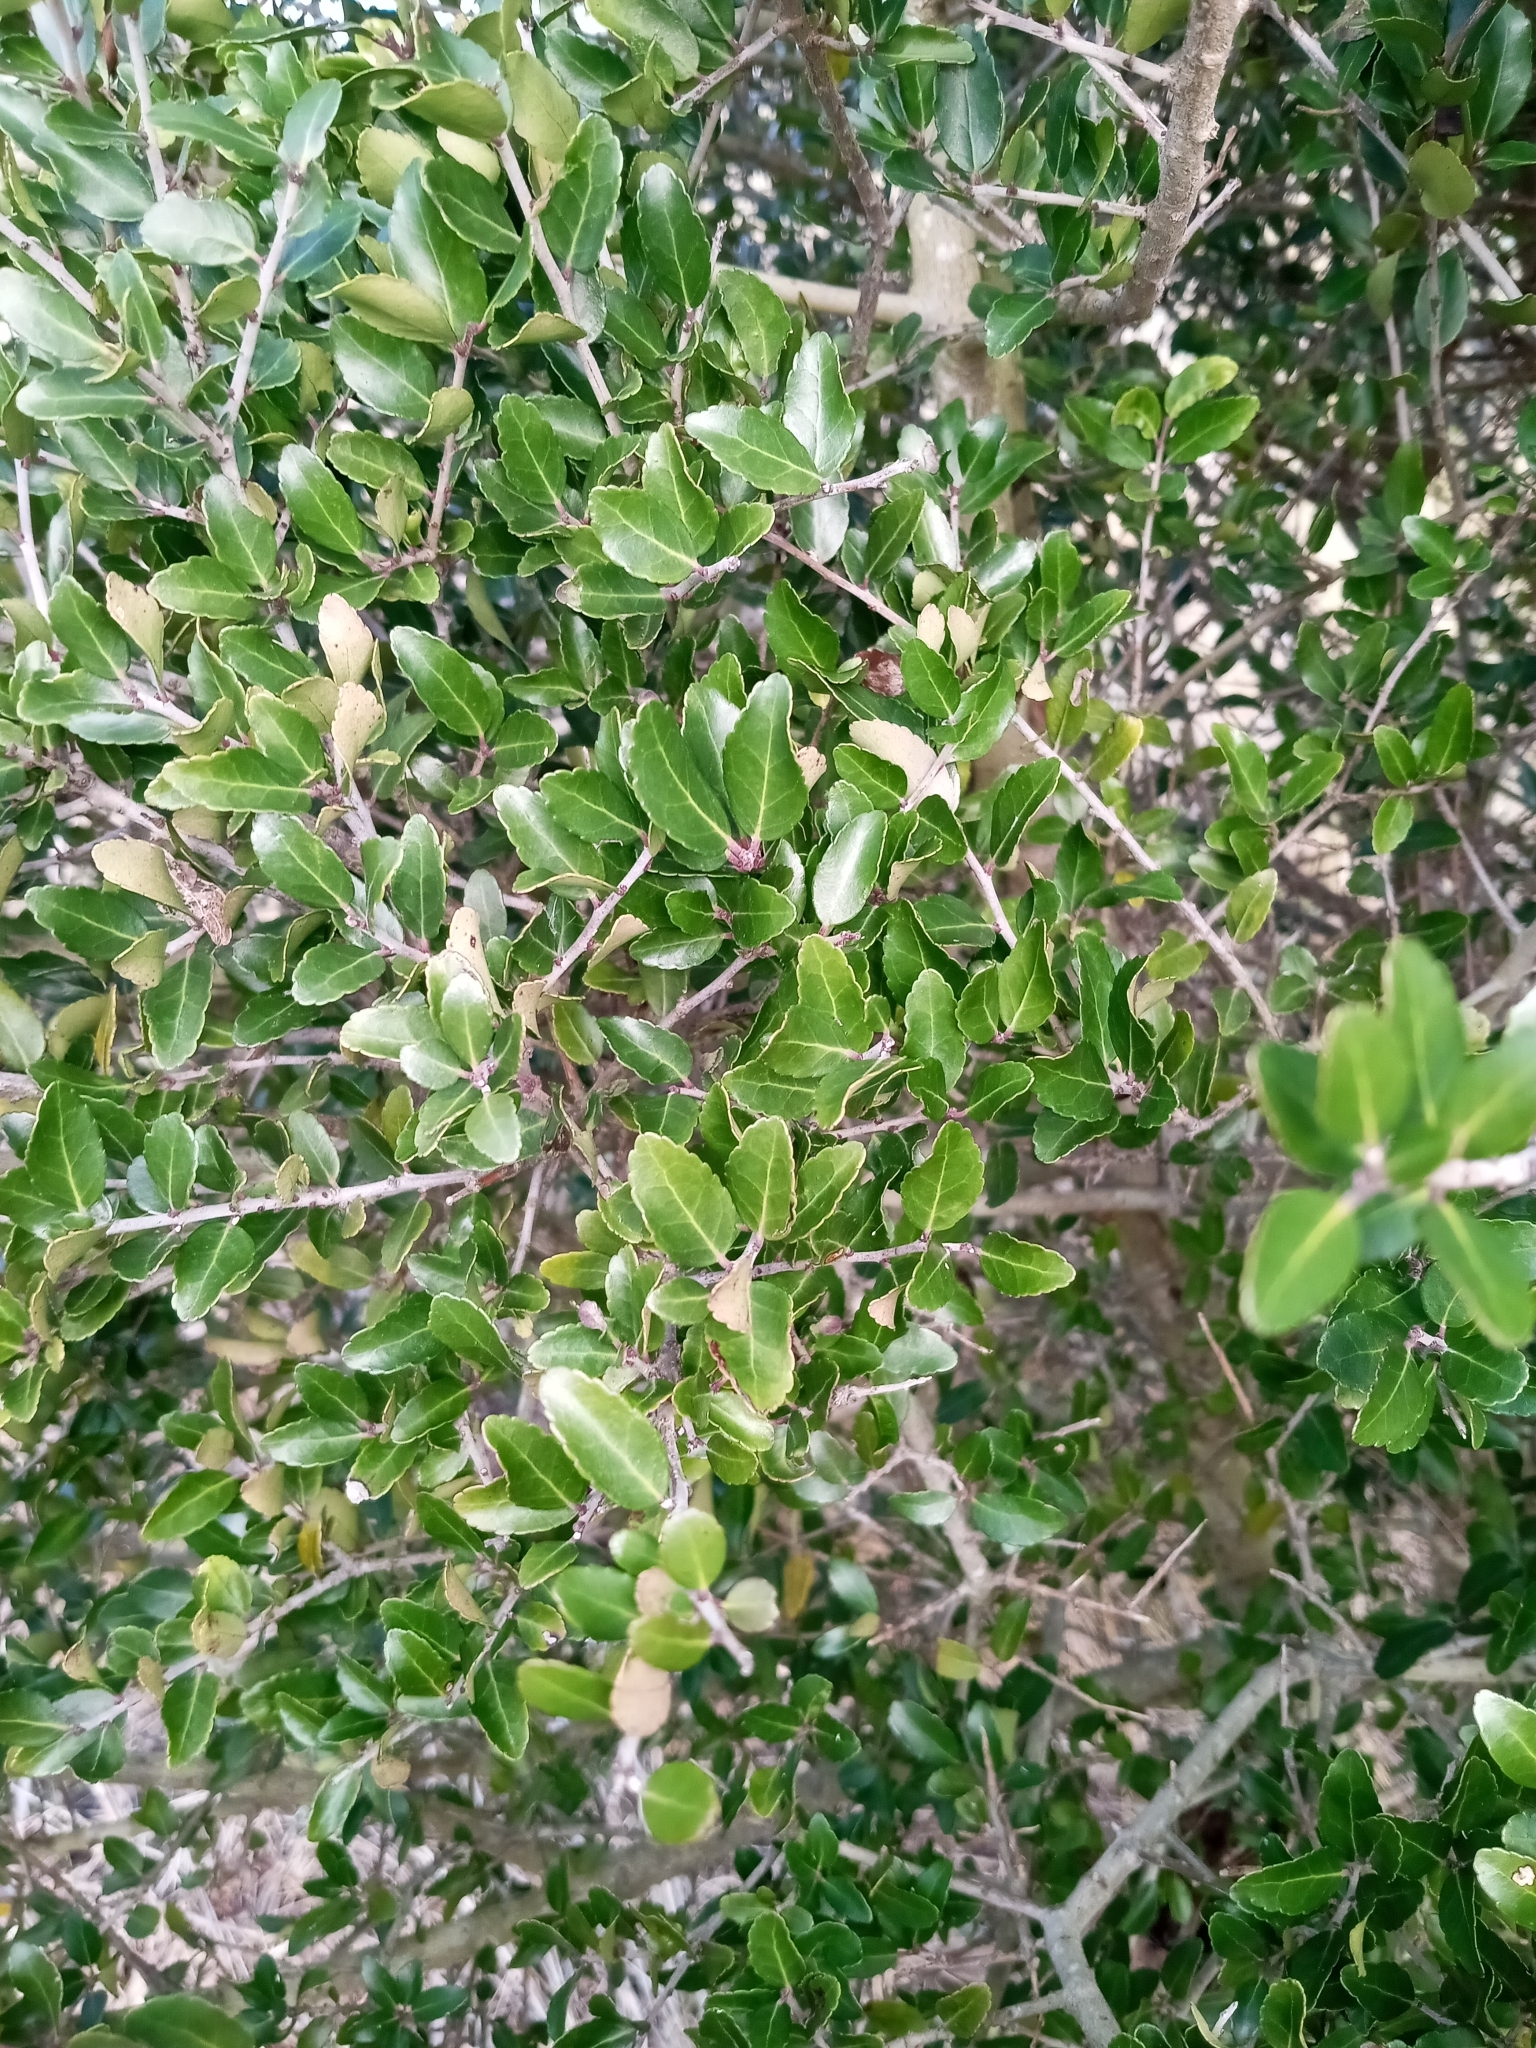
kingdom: Plantae
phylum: Tracheophyta
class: Magnoliopsida
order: Aquifoliales
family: Aquifoliaceae
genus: Ilex
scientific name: Ilex vomitoria
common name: Yaupon holly
